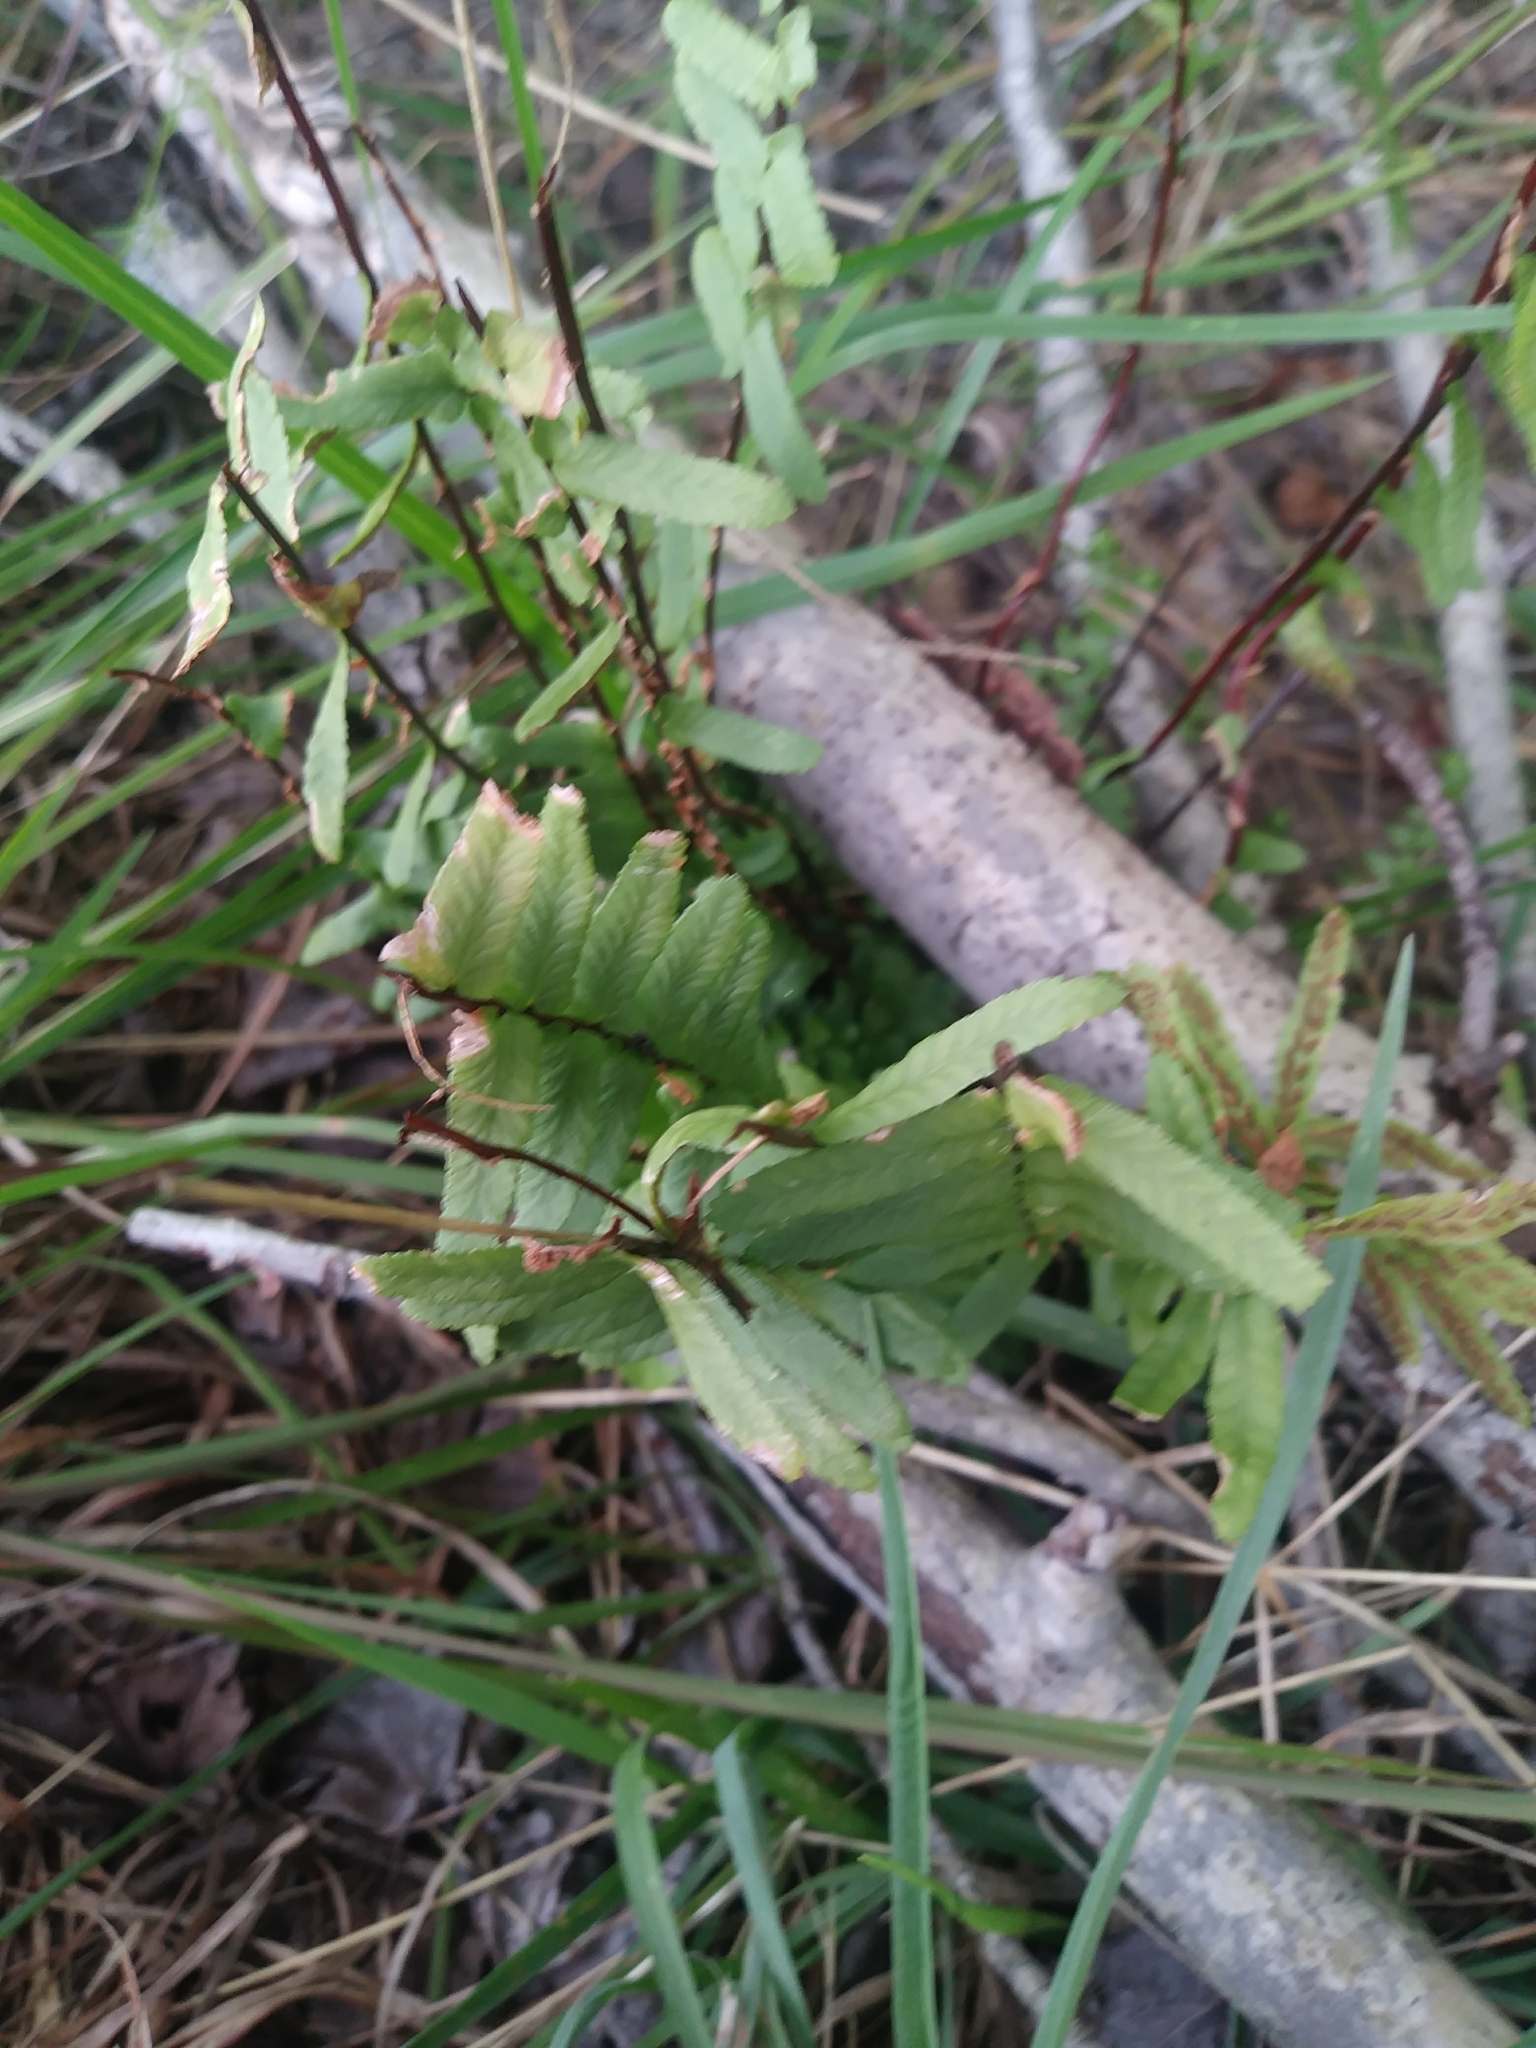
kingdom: Plantae
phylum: Tracheophyta
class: Polypodiopsida
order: Polypodiales
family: Aspleniaceae
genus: Asplenium
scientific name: Asplenium platyneuron
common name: Ebony spleenwort
